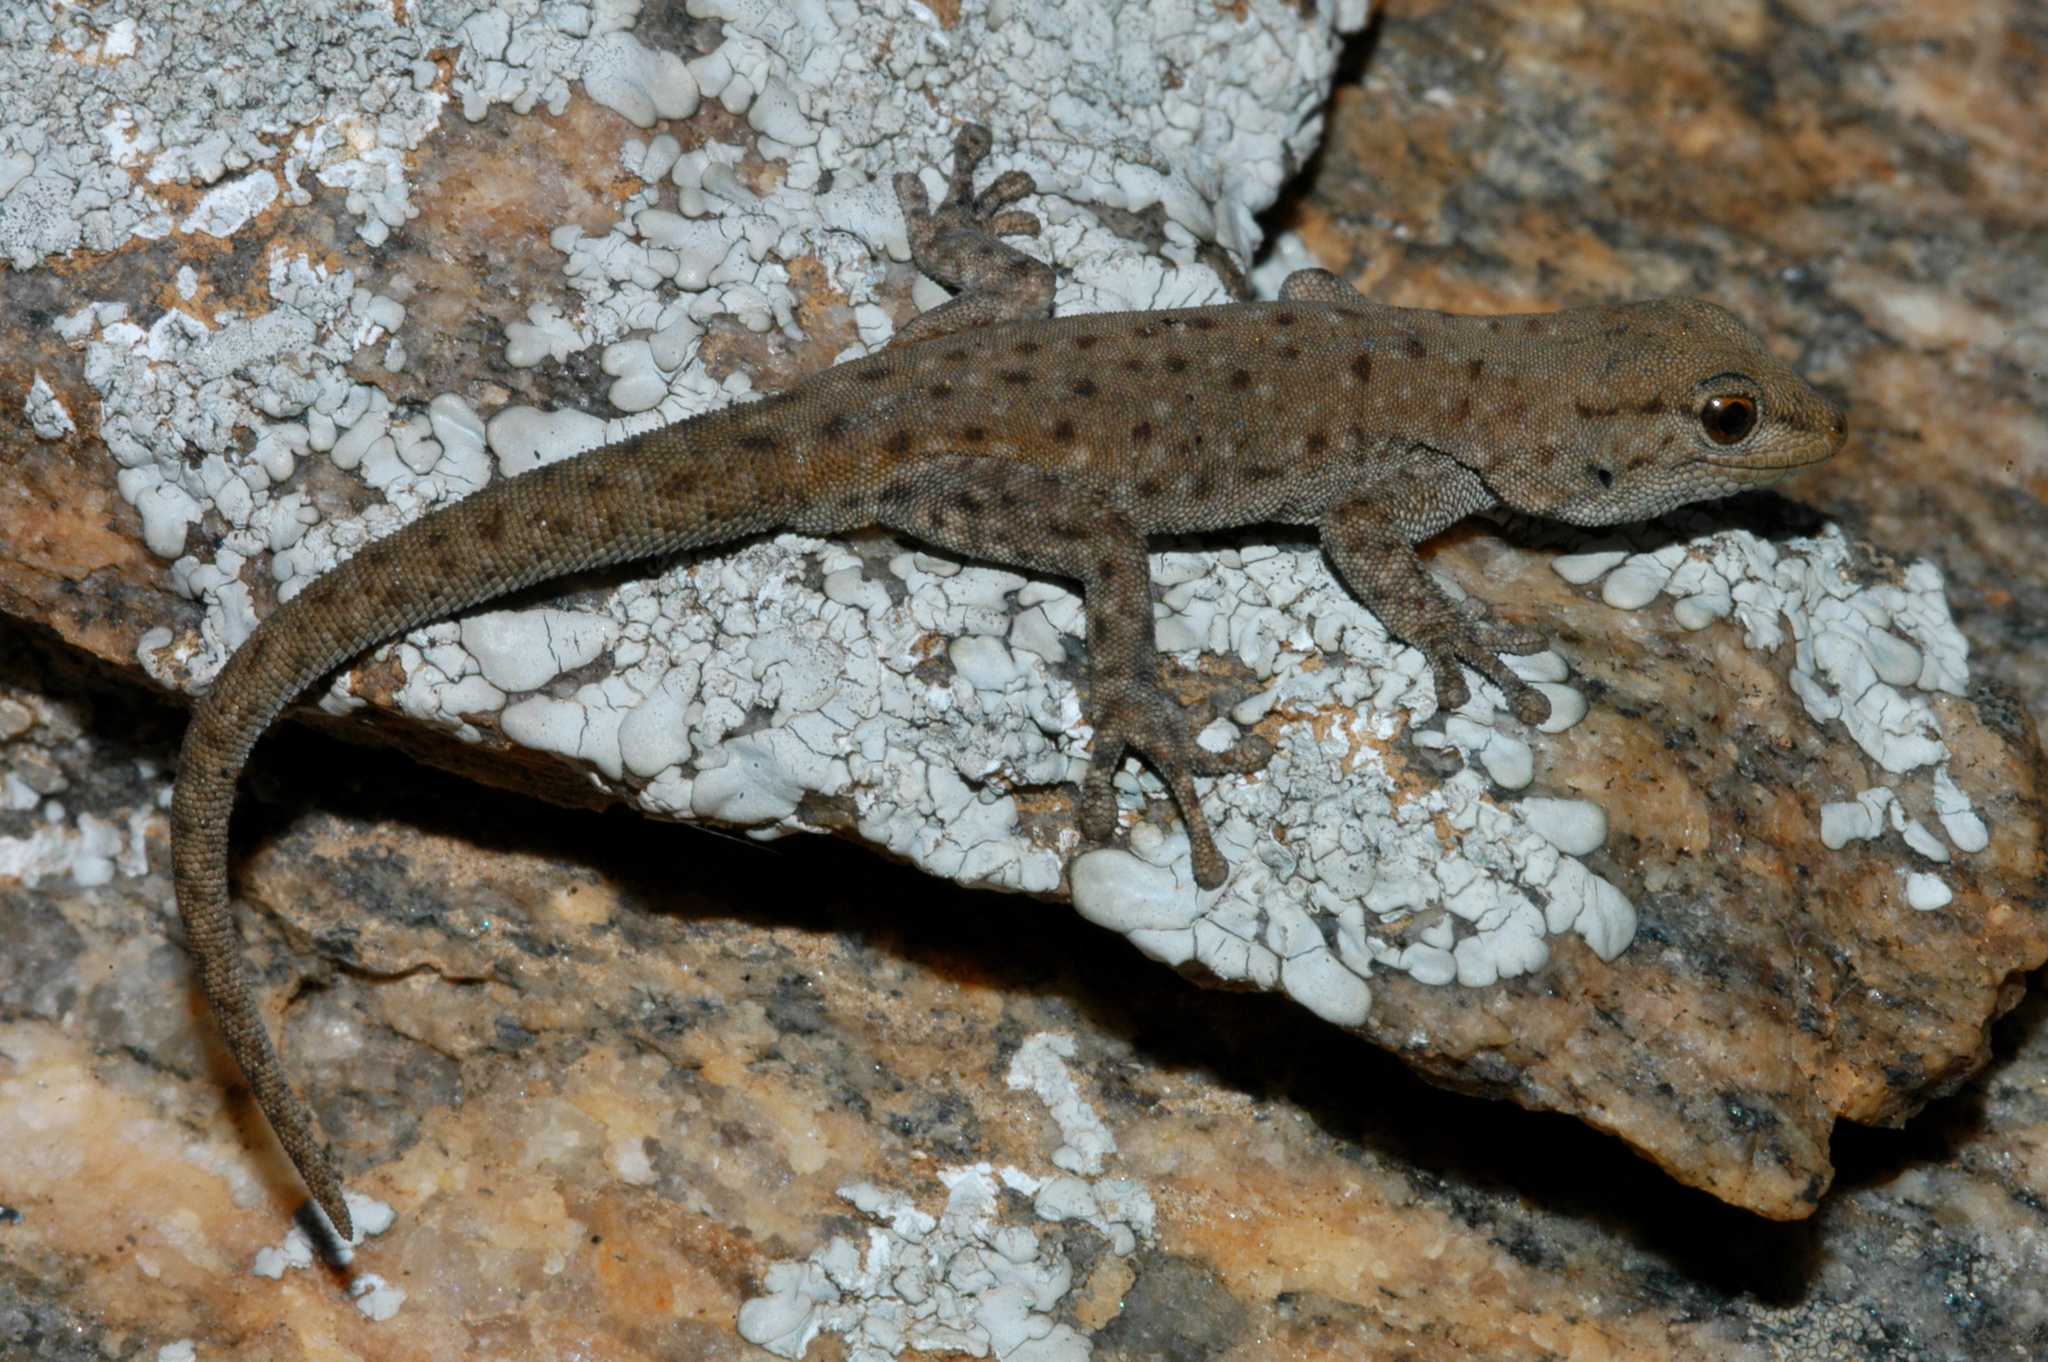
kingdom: Animalia
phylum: Chordata
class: Squamata
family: Gekkonidae
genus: Rhoptropella
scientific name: Rhoptropella ocellata
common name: Namaqua day gecko
